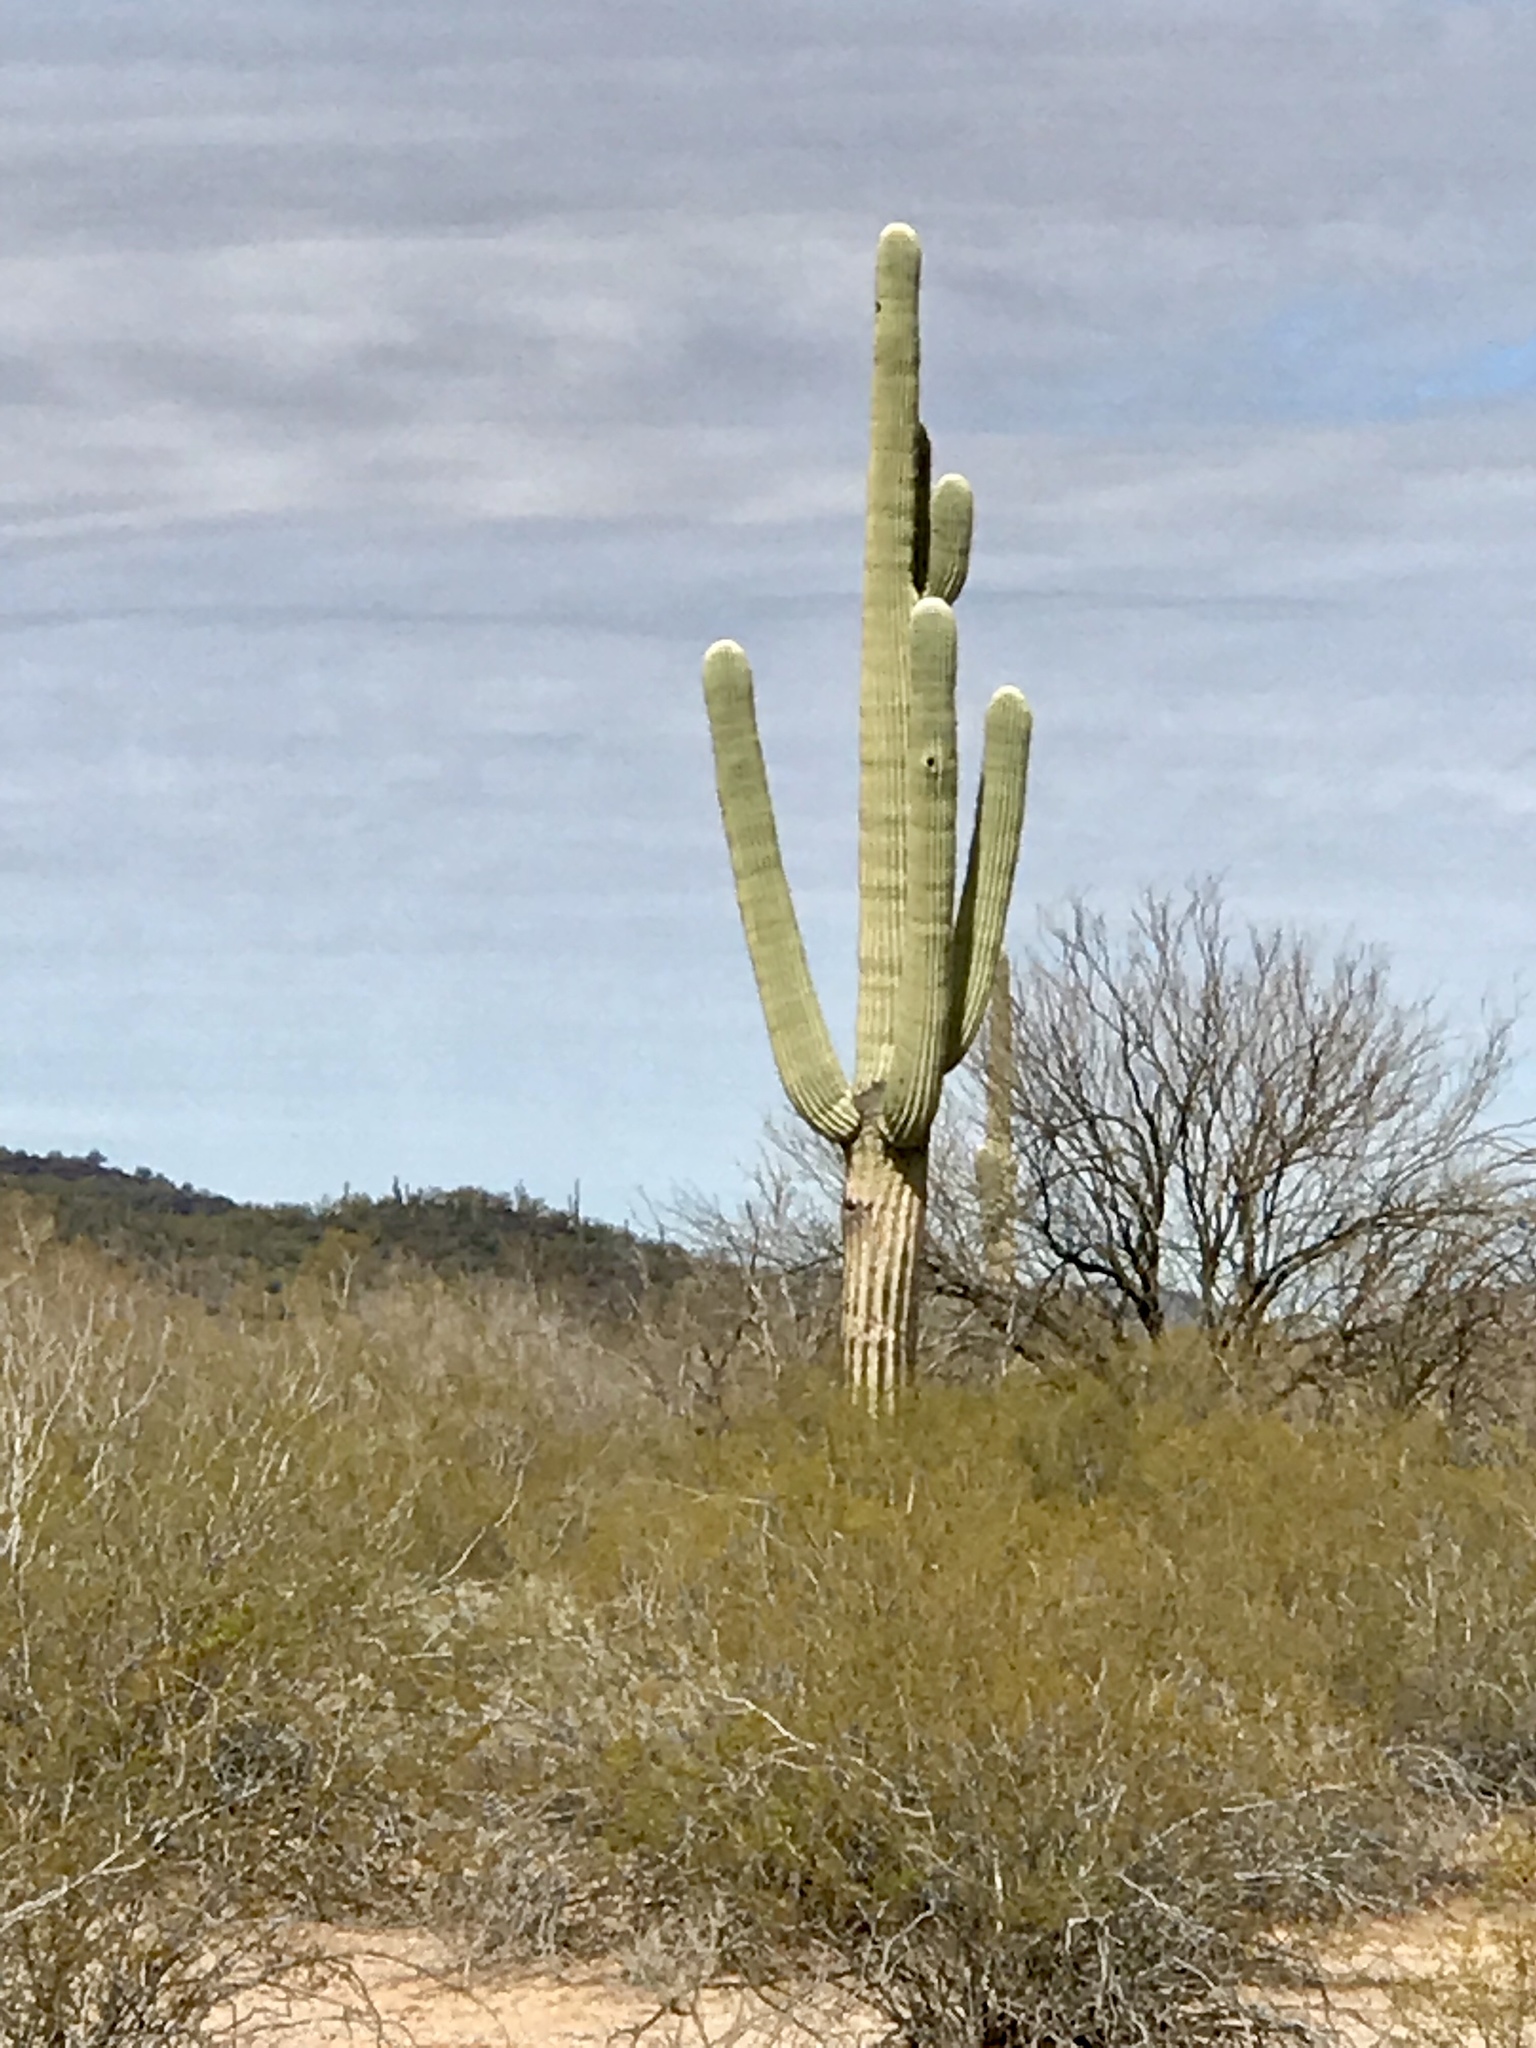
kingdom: Plantae
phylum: Tracheophyta
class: Magnoliopsida
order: Caryophyllales
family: Cactaceae
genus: Carnegiea
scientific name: Carnegiea gigantea
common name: Saguaro
